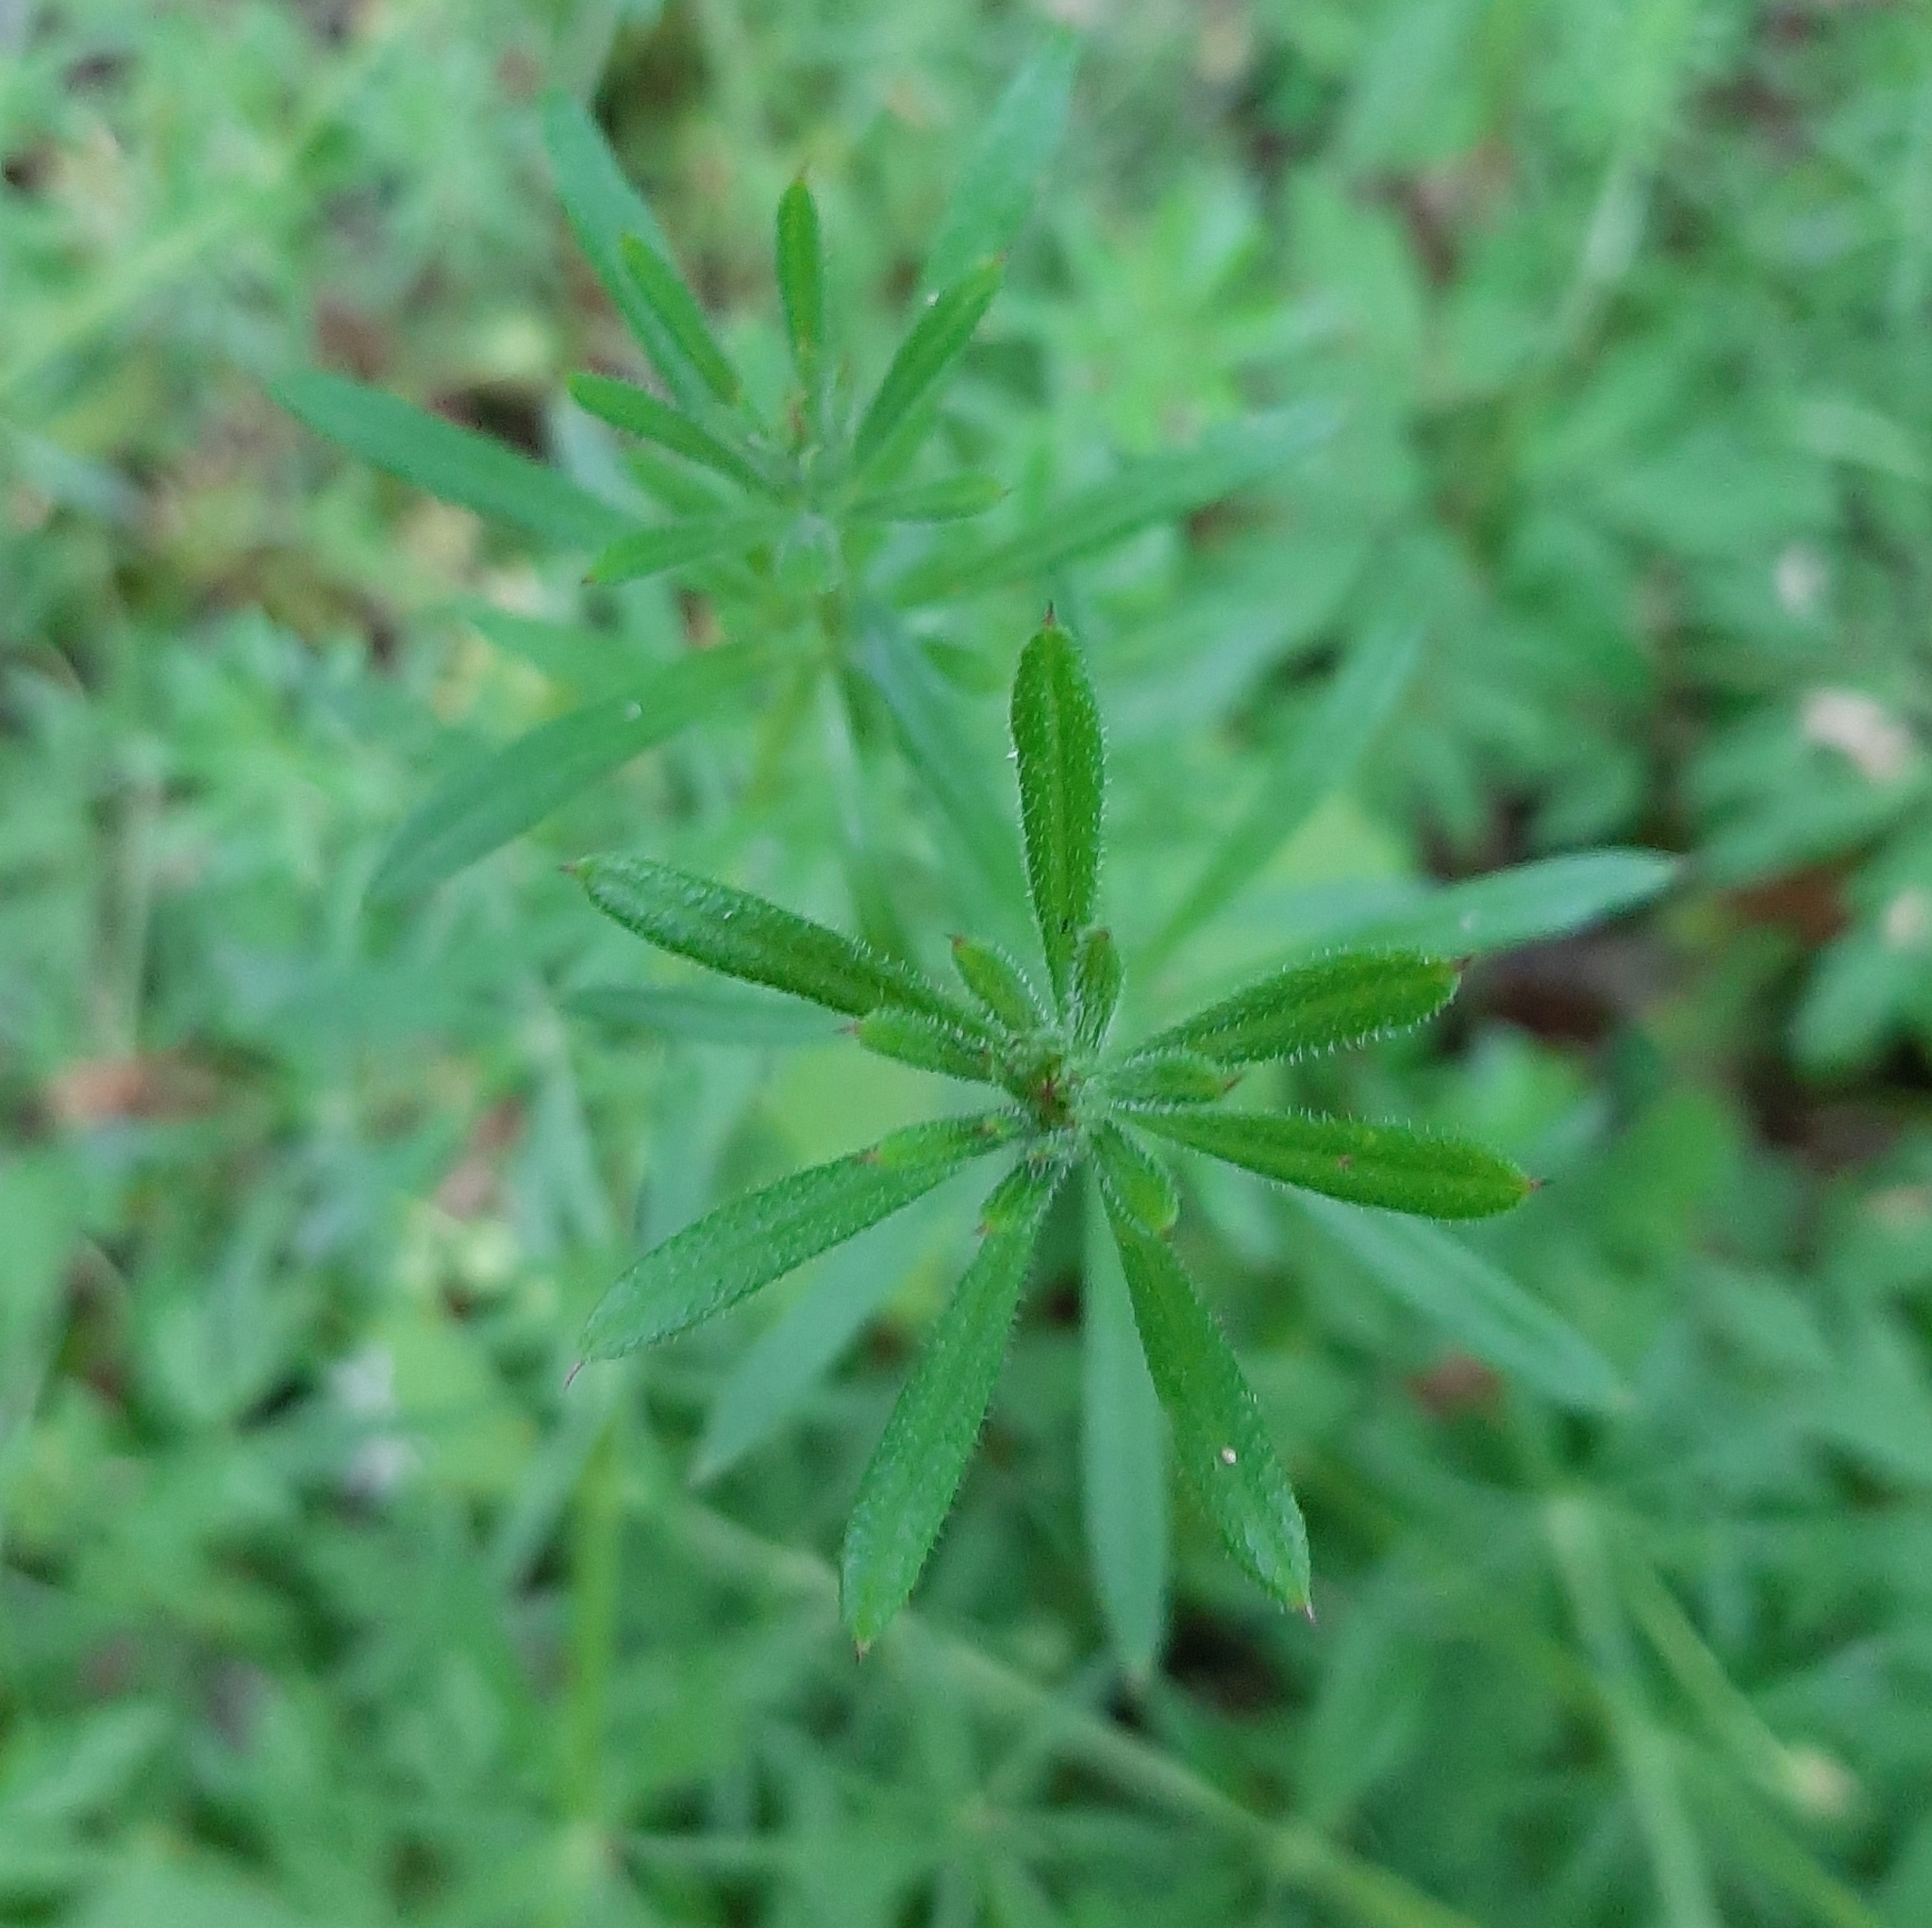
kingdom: Plantae
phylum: Tracheophyta
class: Magnoliopsida
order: Gentianales
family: Rubiaceae
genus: Galium
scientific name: Galium aparine
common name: Cleavers
